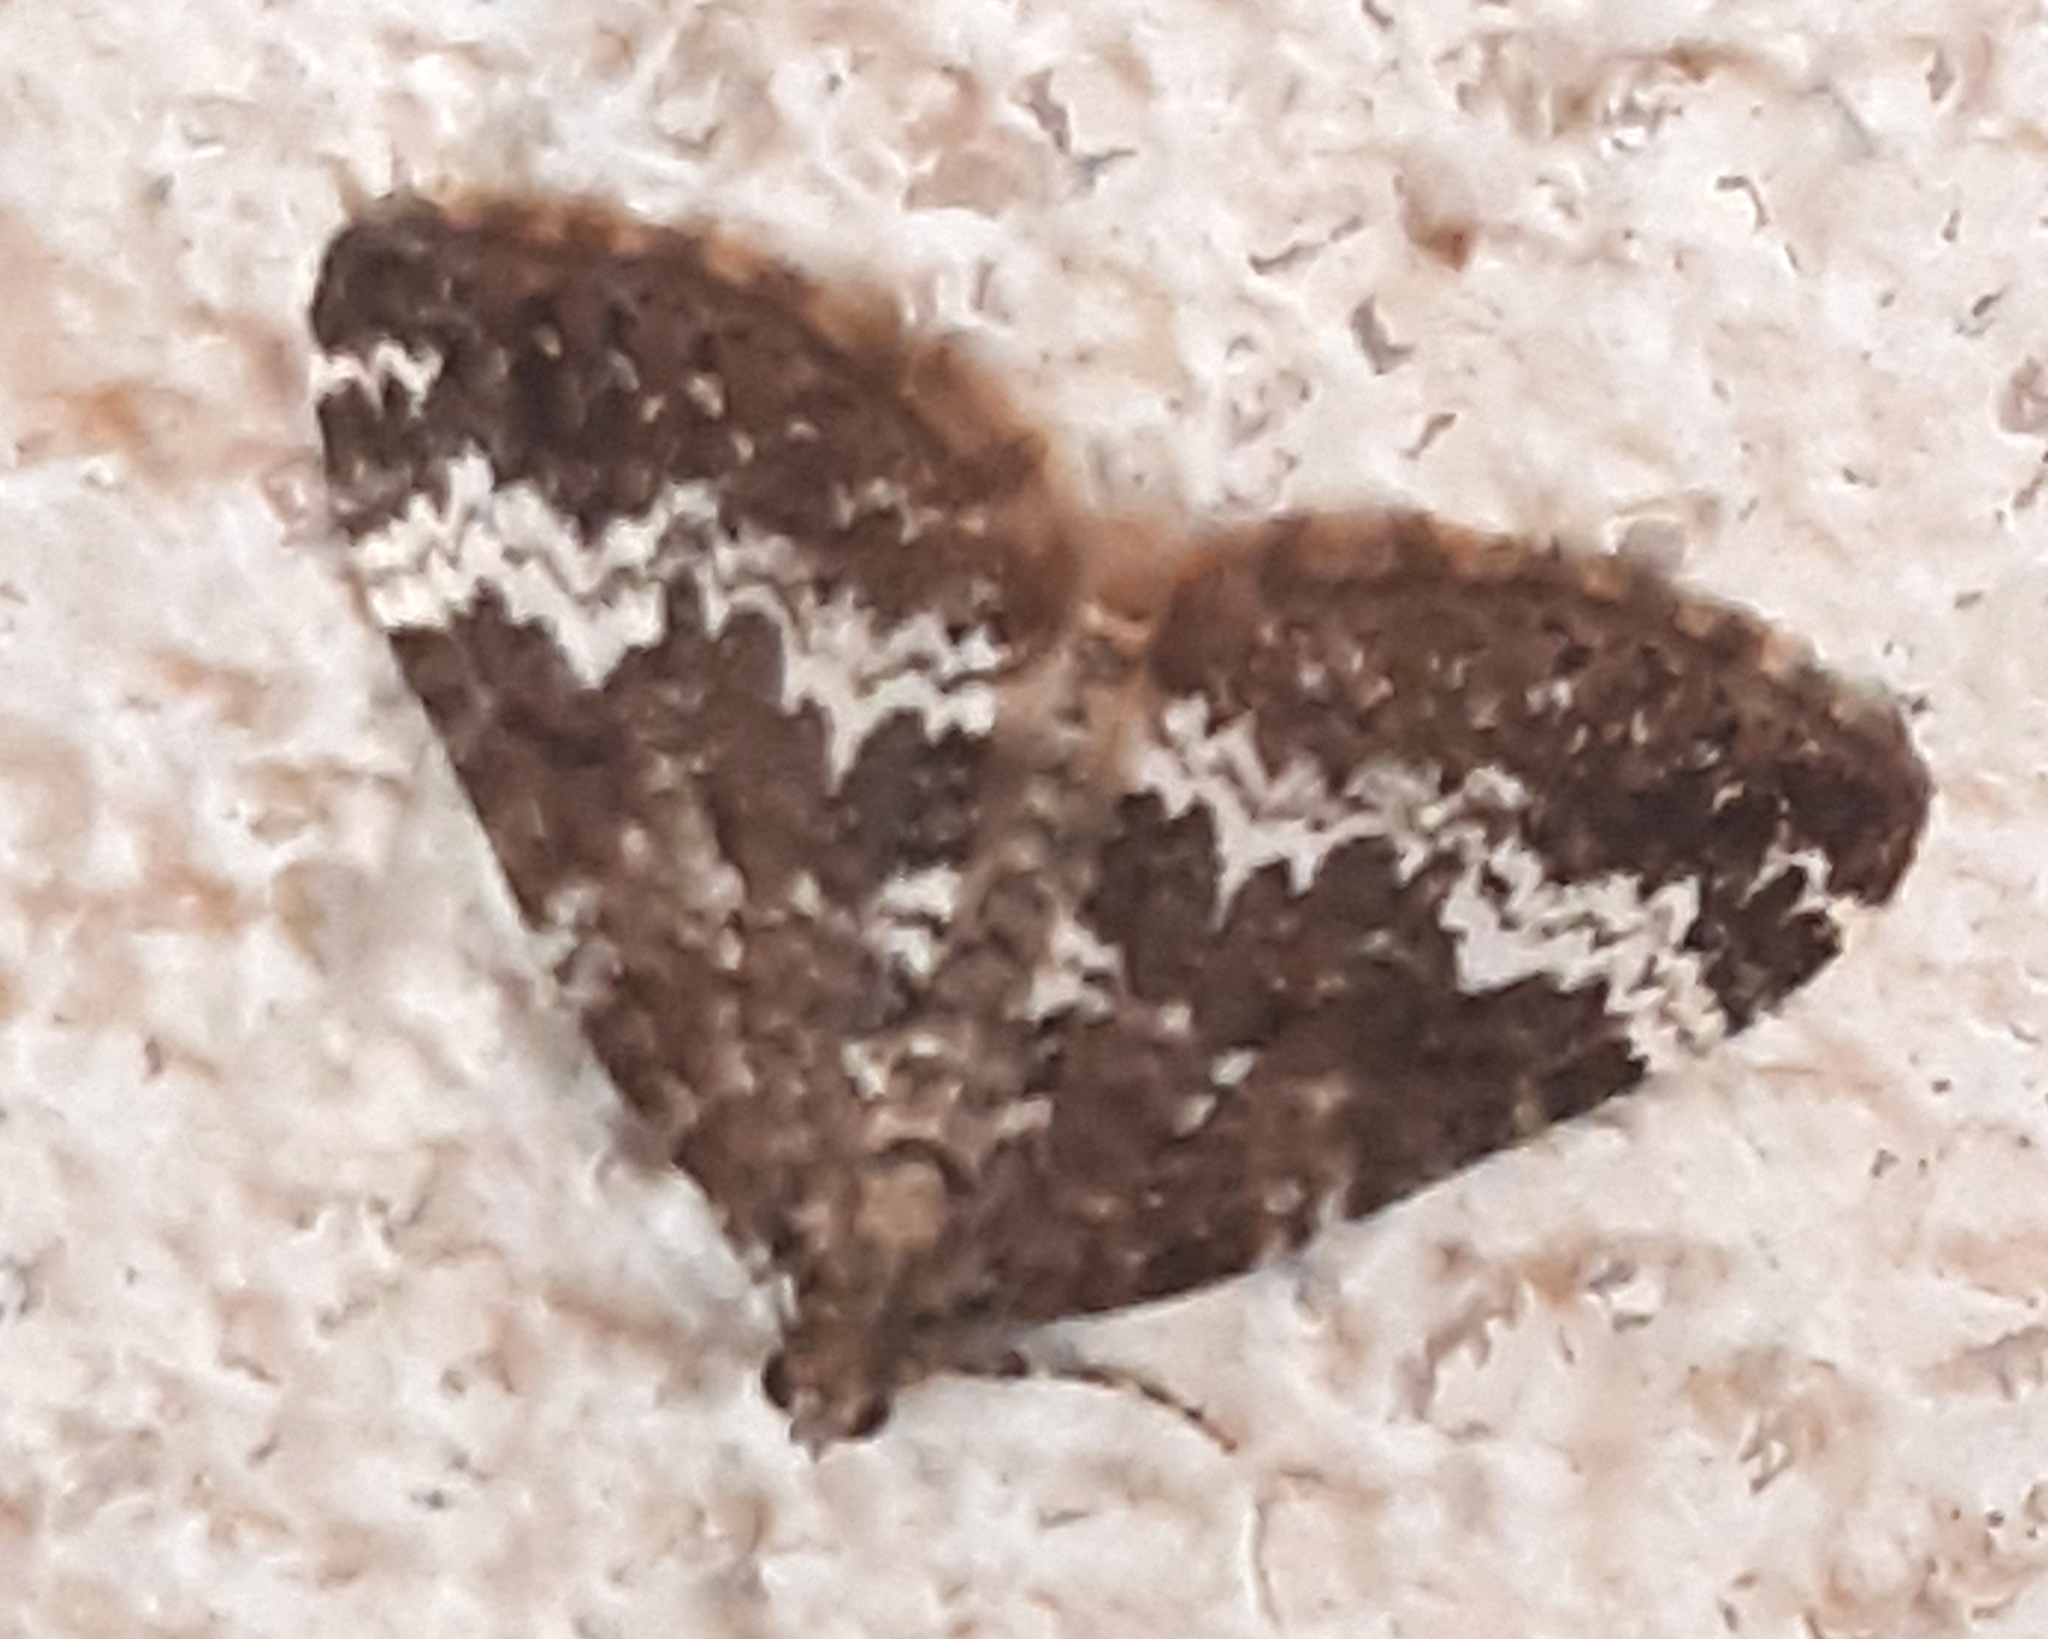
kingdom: Animalia
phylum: Arthropoda
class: Insecta
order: Lepidoptera
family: Geometridae
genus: Perizoma
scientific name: Perizoma alchemillata
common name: Small rivulet
